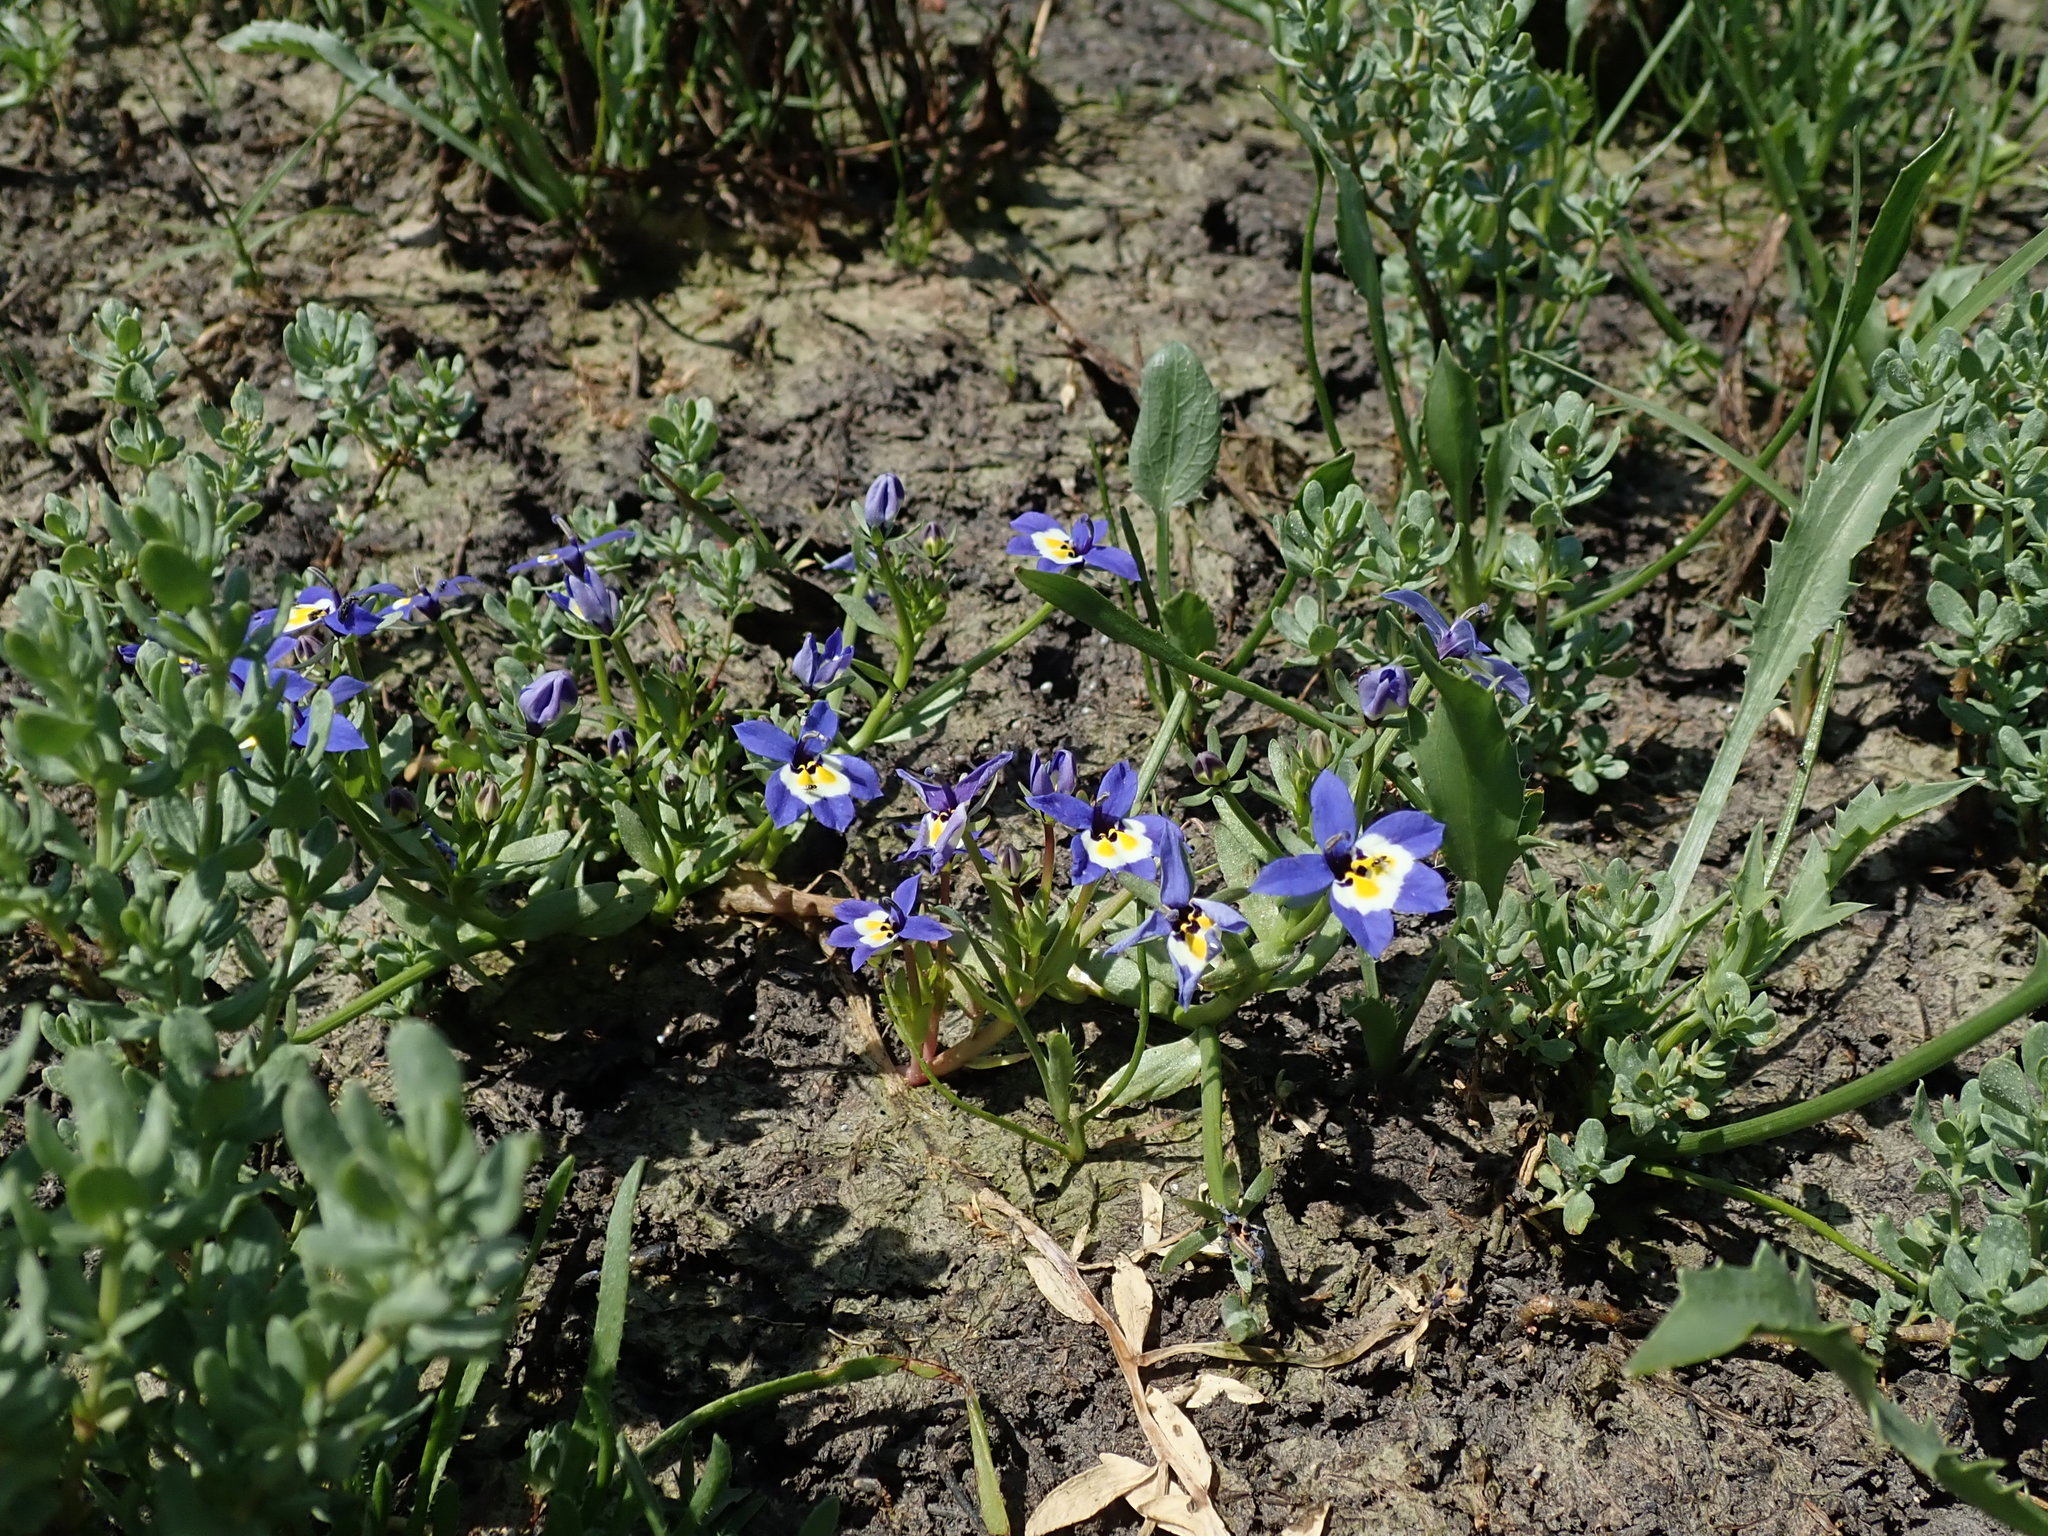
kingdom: Plantae
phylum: Tracheophyta
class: Magnoliopsida
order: Asterales
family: Campanulaceae
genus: Downingia
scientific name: Downingia pulchella
